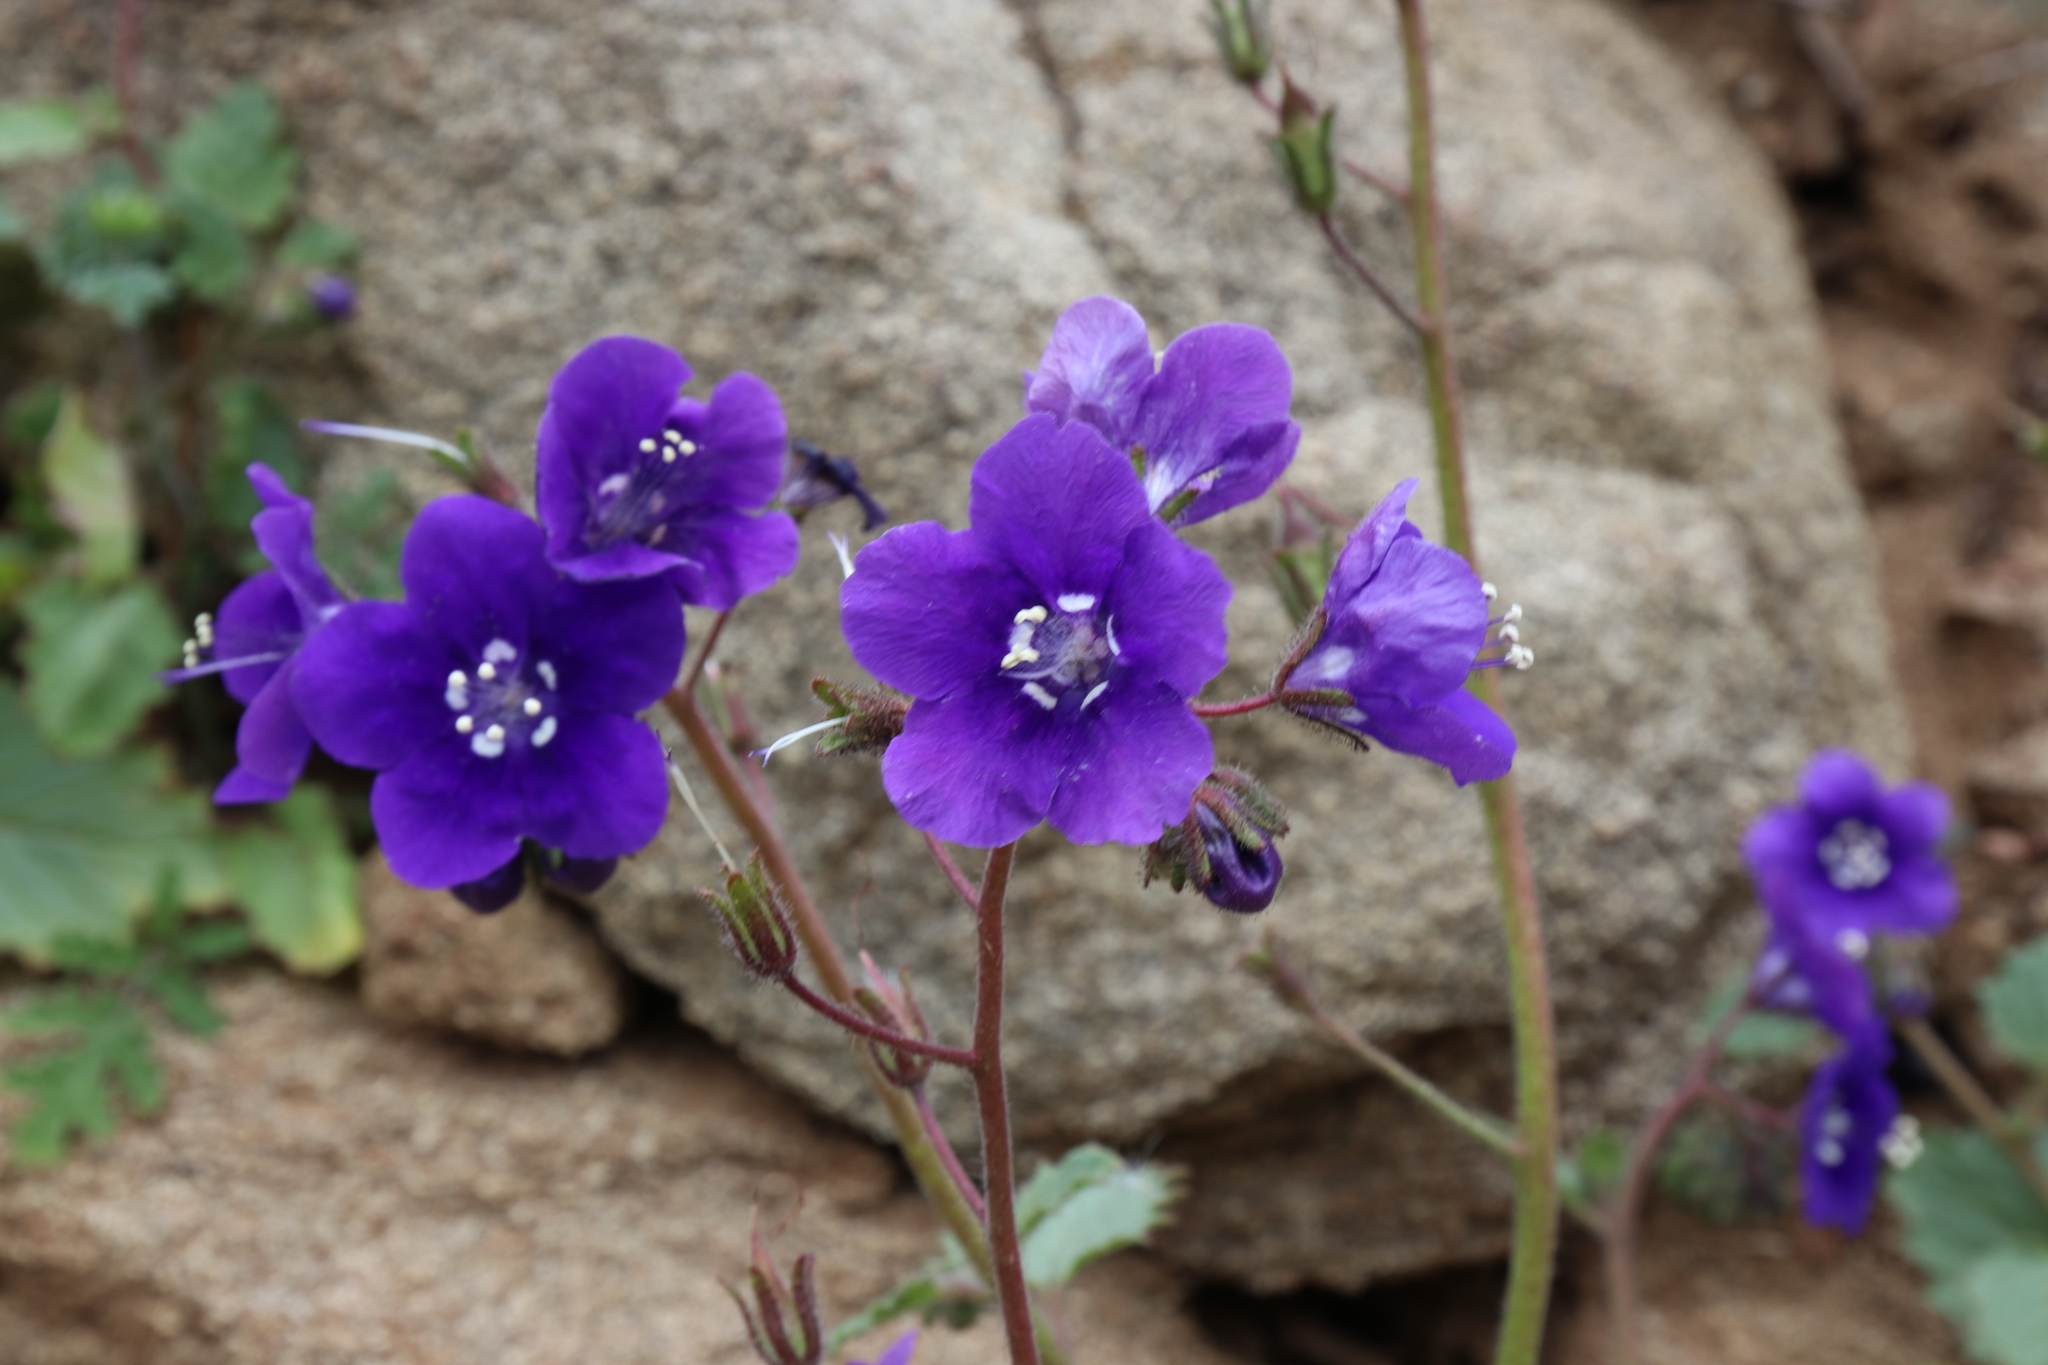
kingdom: Plantae
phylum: Tracheophyta
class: Magnoliopsida
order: Boraginales
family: Hydrophyllaceae
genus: Phacelia
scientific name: Phacelia parryi
